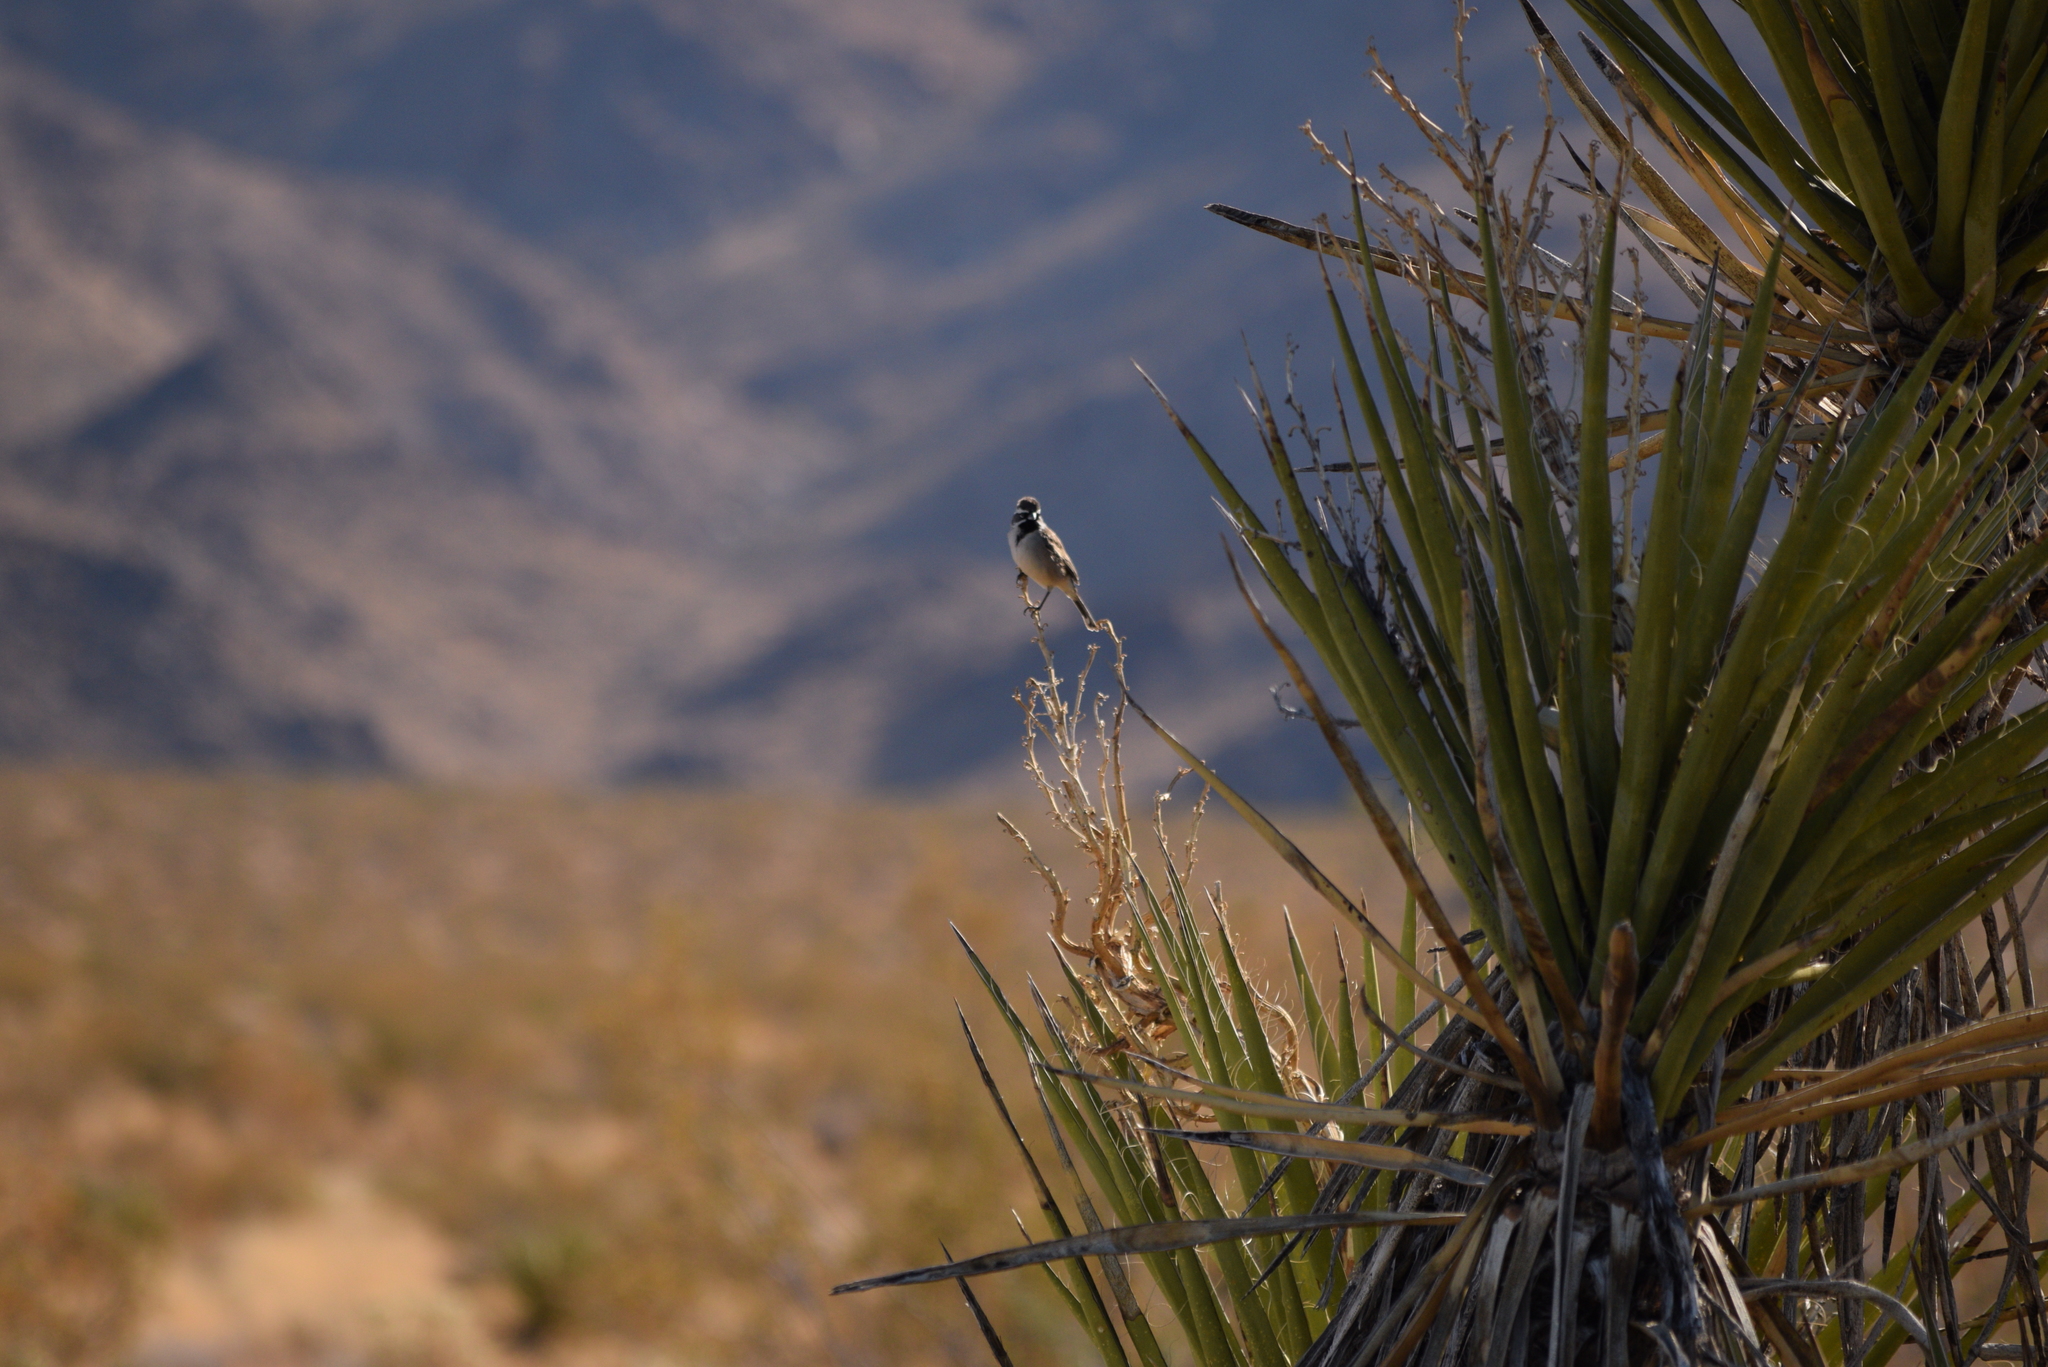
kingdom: Animalia
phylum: Chordata
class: Aves
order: Passeriformes
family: Passerellidae
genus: Amphispiza
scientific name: Amphispiza bilineata
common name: Black-throated sparrow
